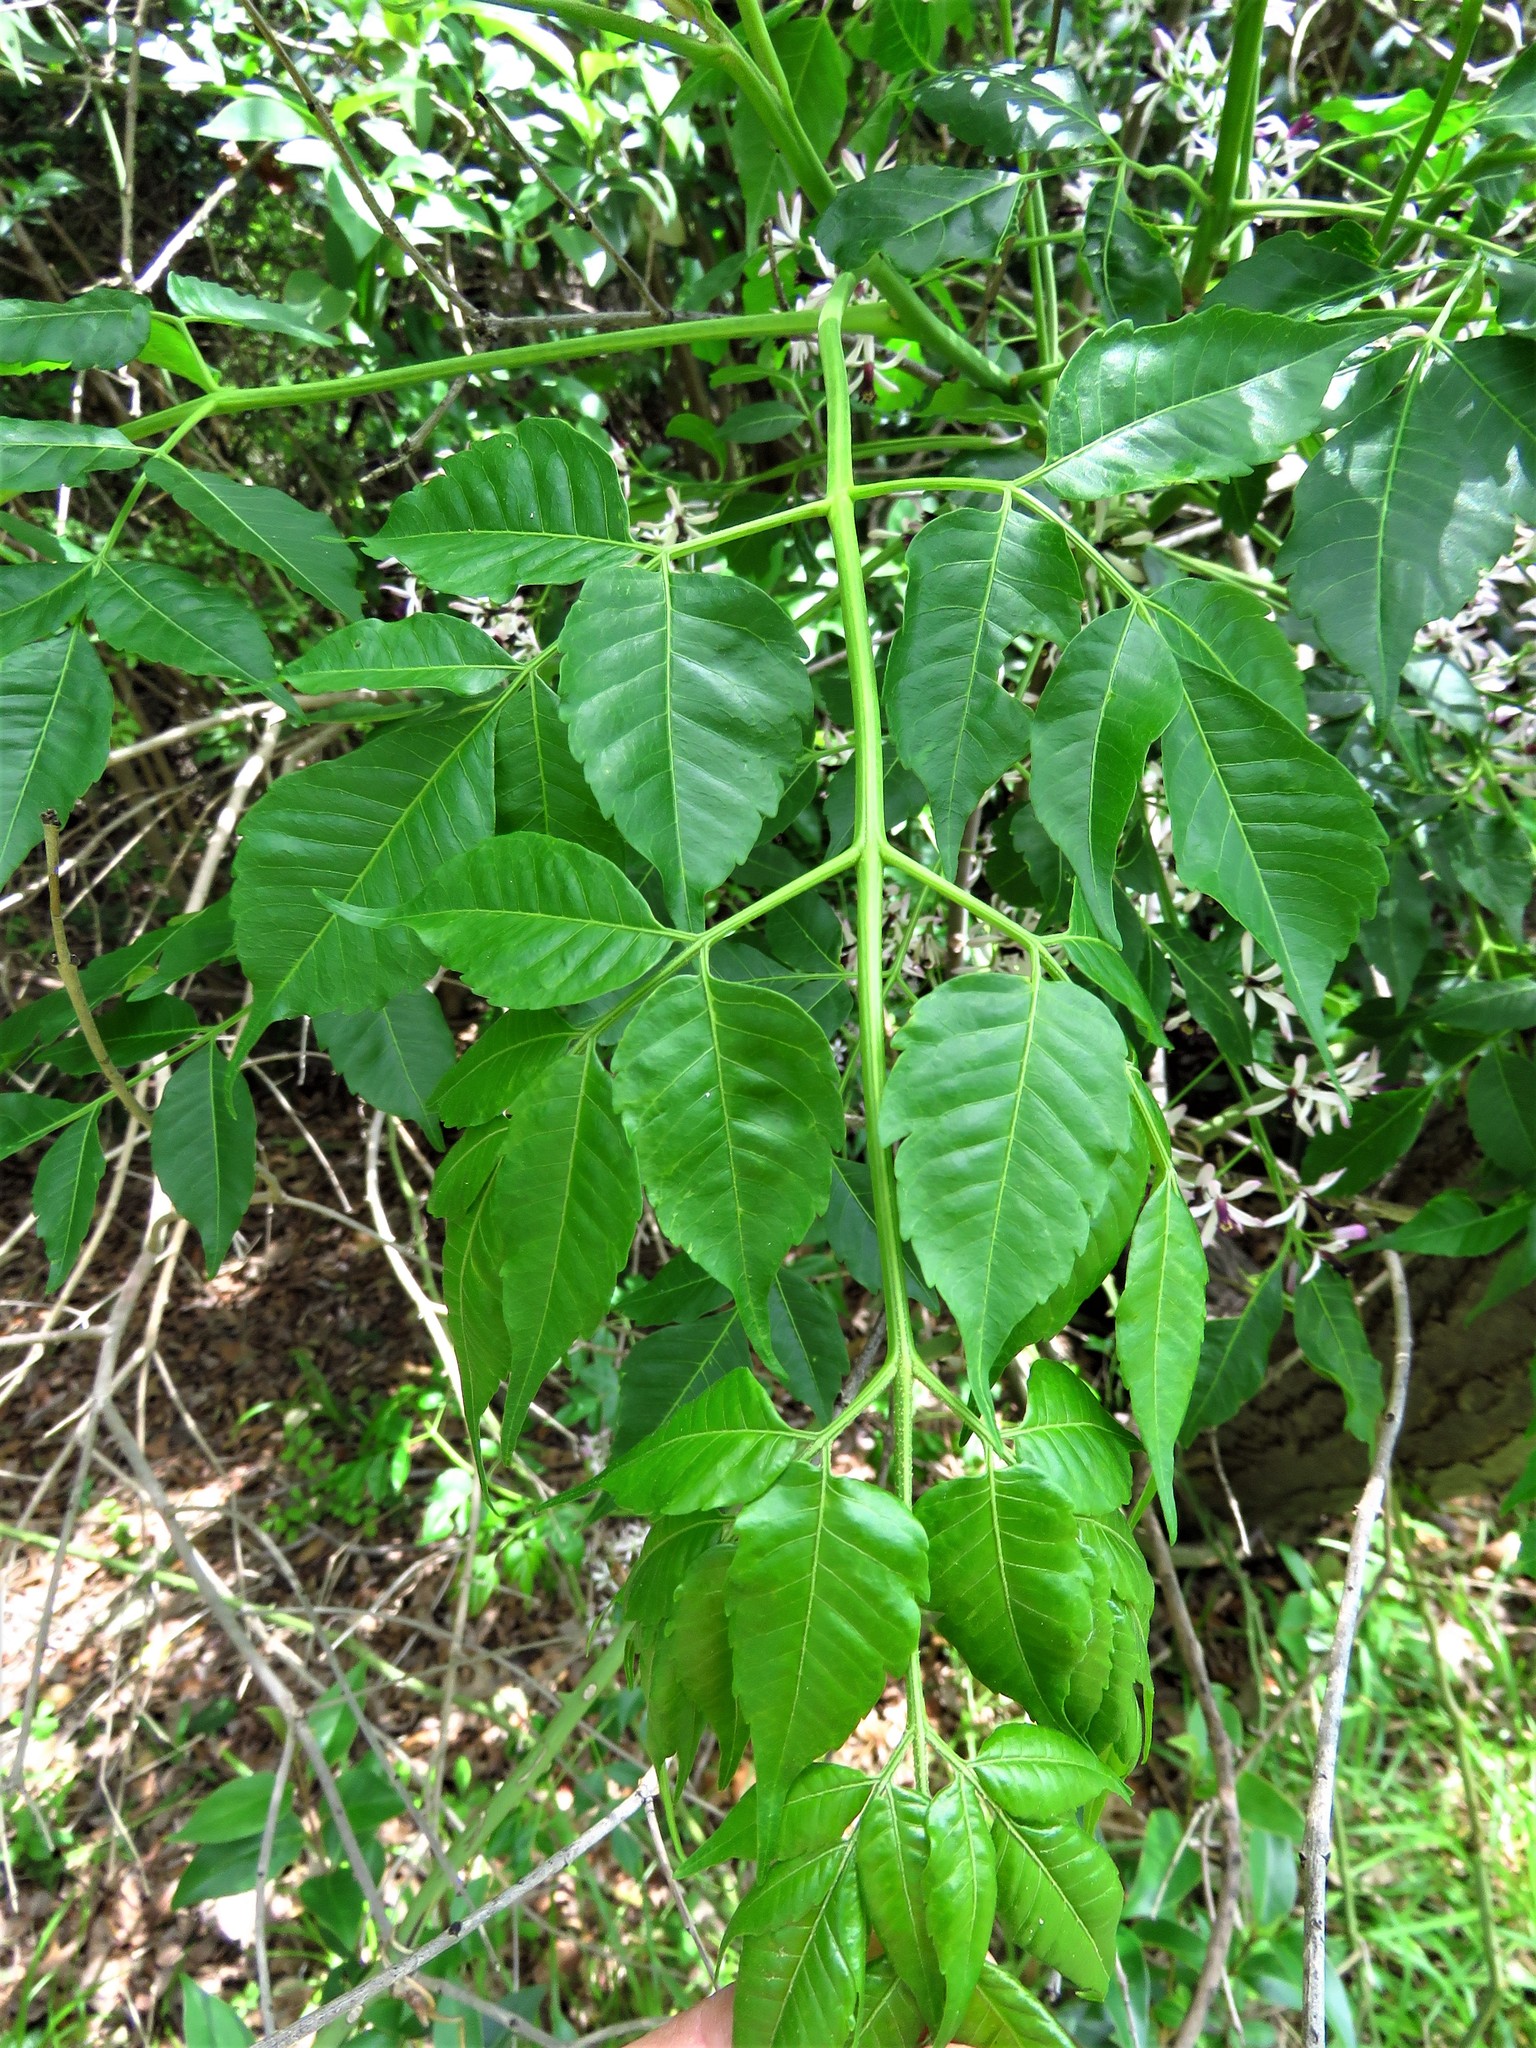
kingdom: Plantae
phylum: Tracheophyta
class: Magnoliopsida
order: Sapindales
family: Meliaceae
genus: Melia
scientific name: Melia azedarach
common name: Chinaberrytree
